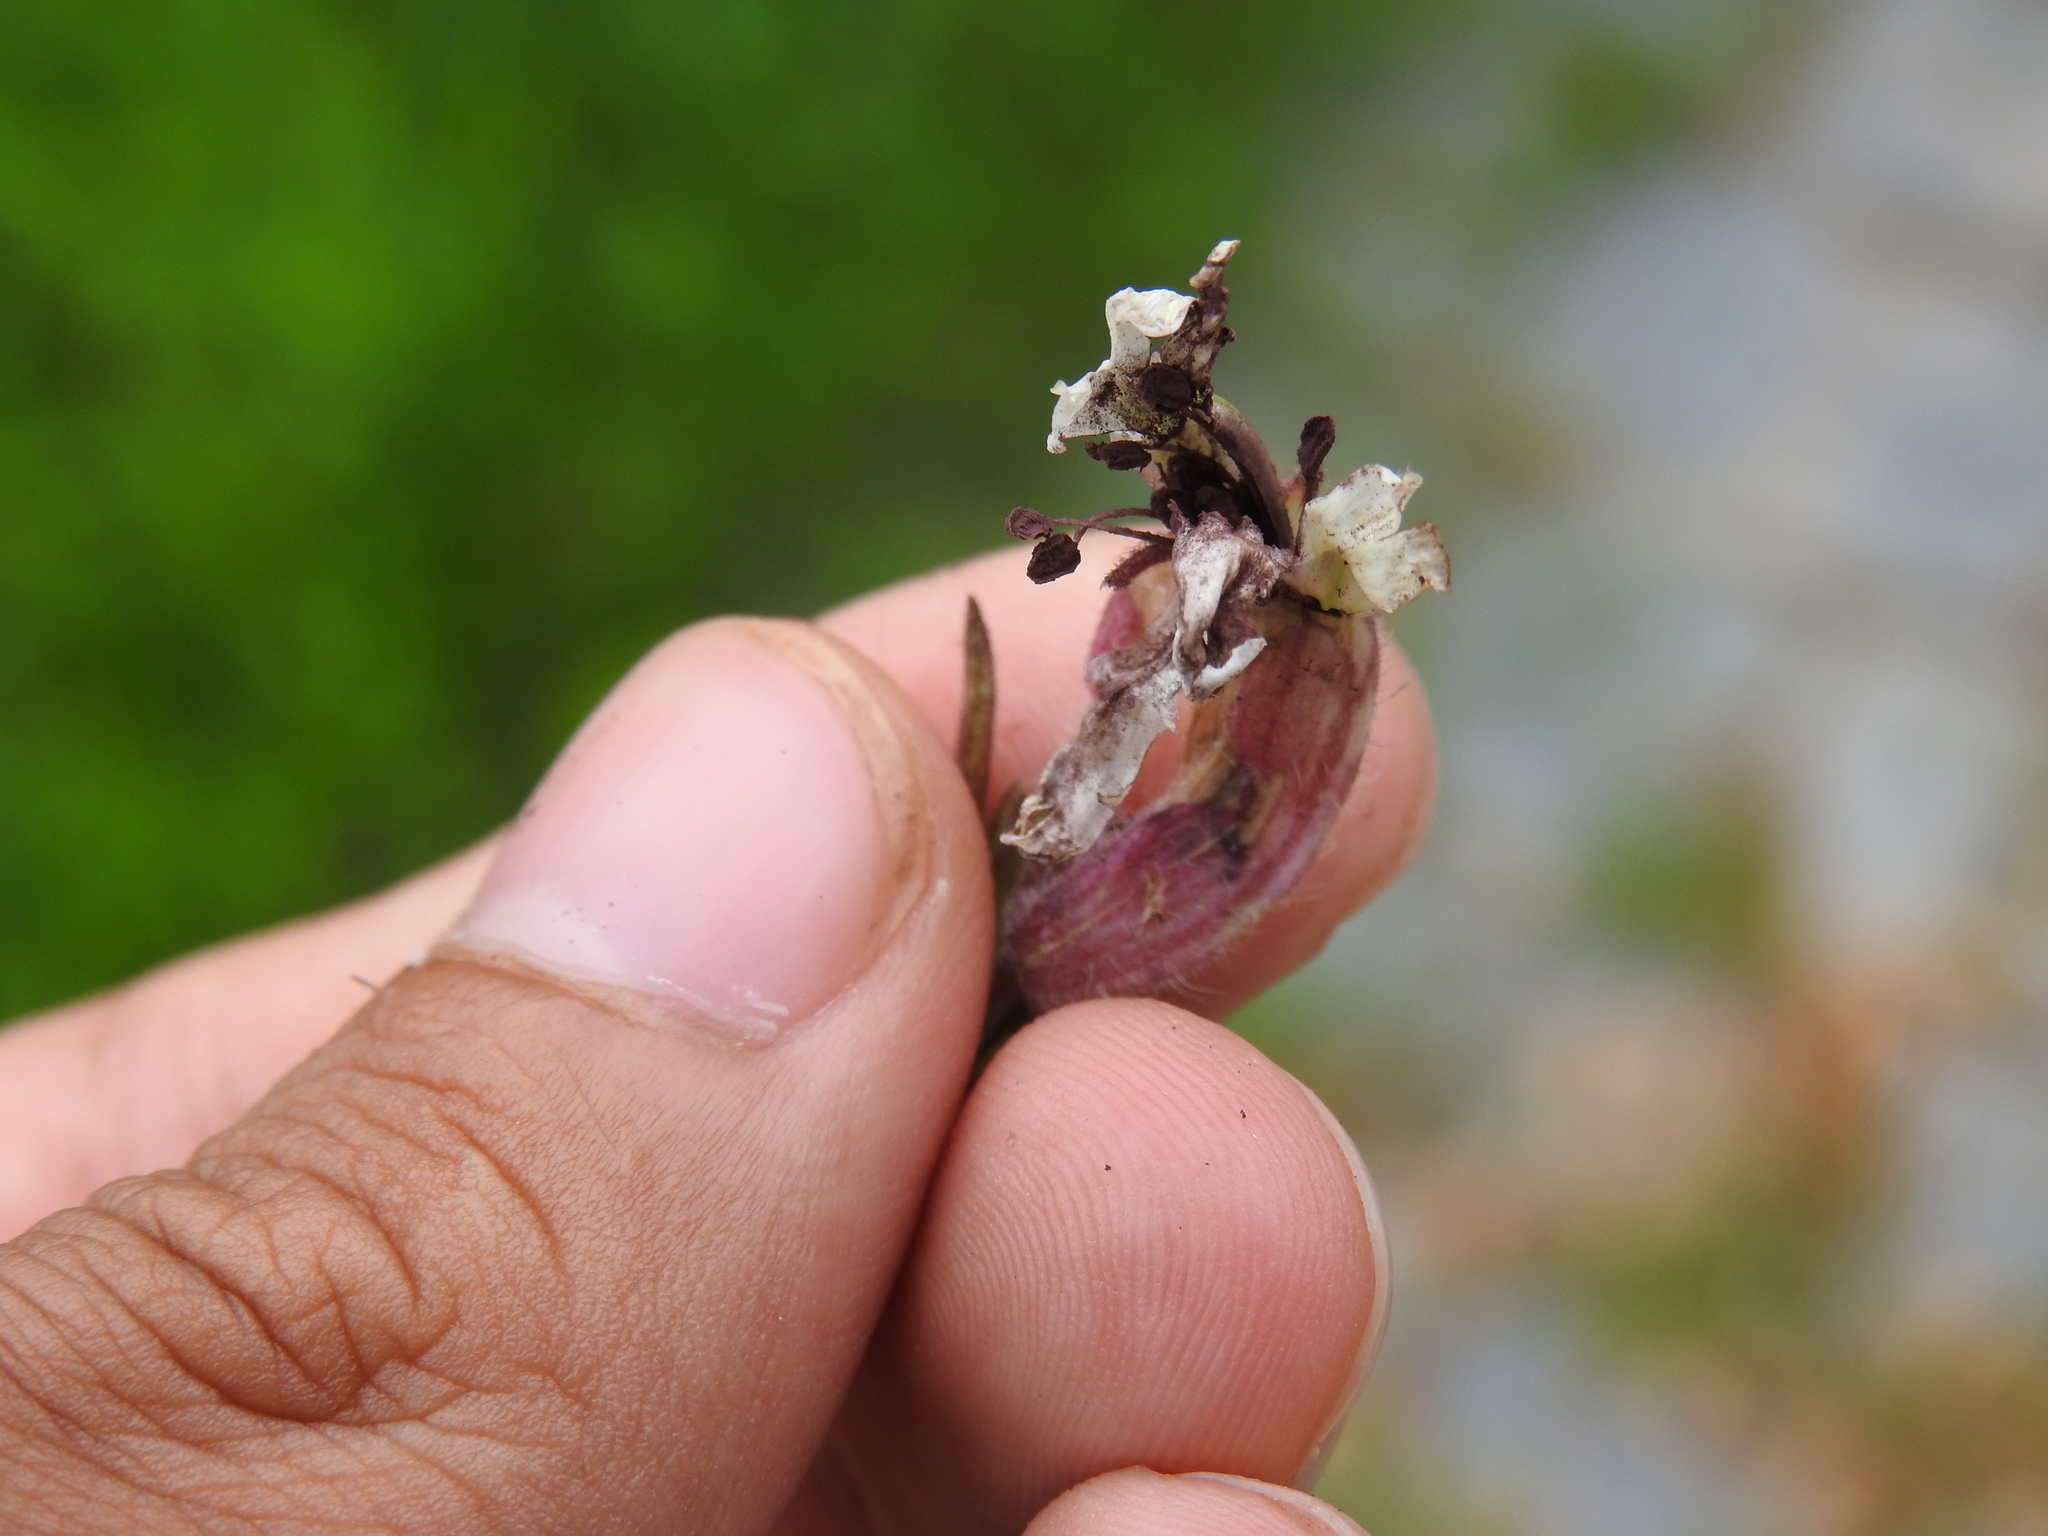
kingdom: Fungi
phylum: Basidiomycota
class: Microbotryomycetes
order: Microbotryales
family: Microbotryaceae
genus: Microbotryum
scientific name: Microbotryum lychnidis-dioicae
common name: Campion anther smut
